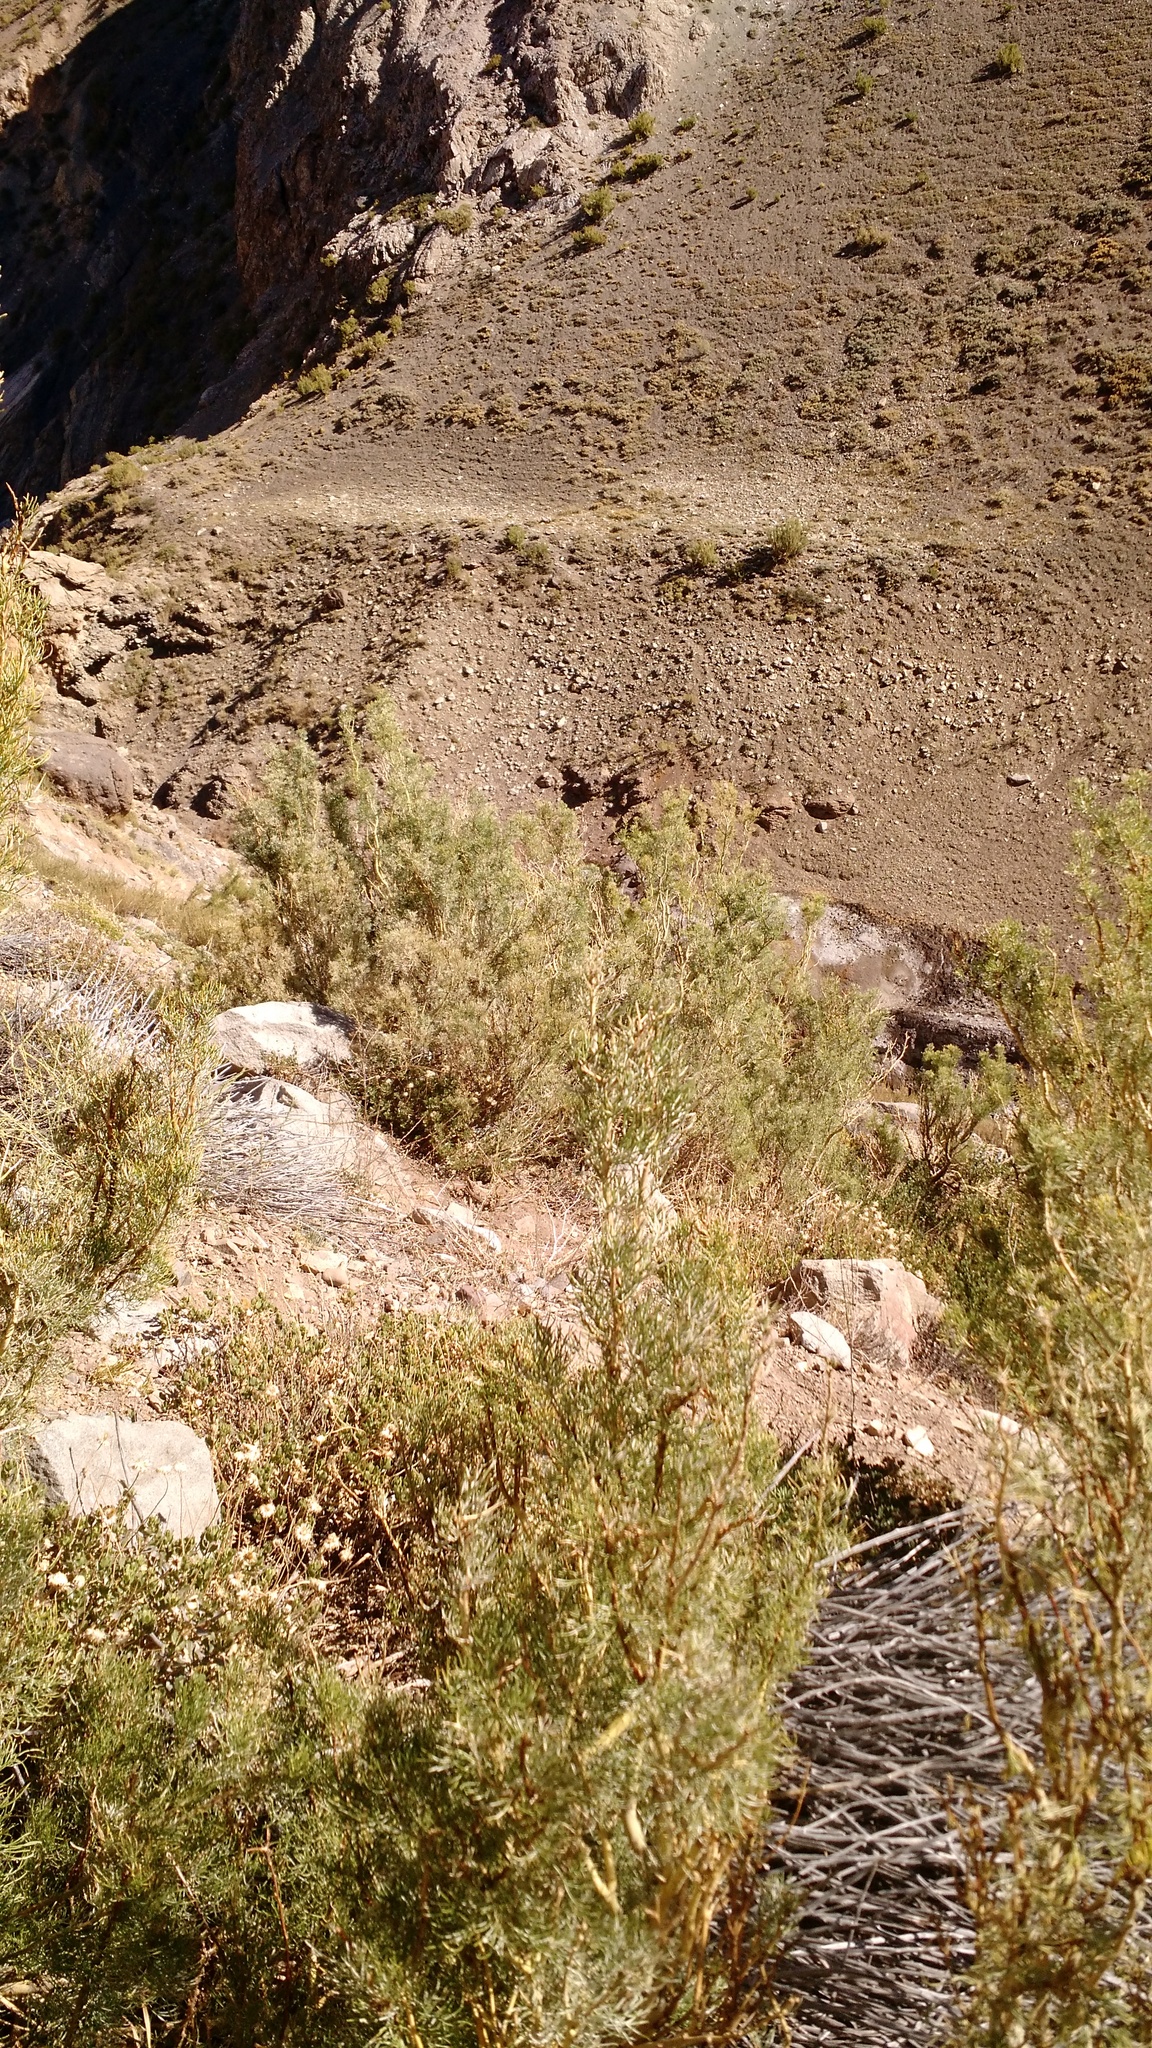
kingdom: Plantae
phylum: Tracheophyta
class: Magnoliopsida
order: Fabales
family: Fabaceae
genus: Adesmia
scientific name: Adesmia pinifolia
